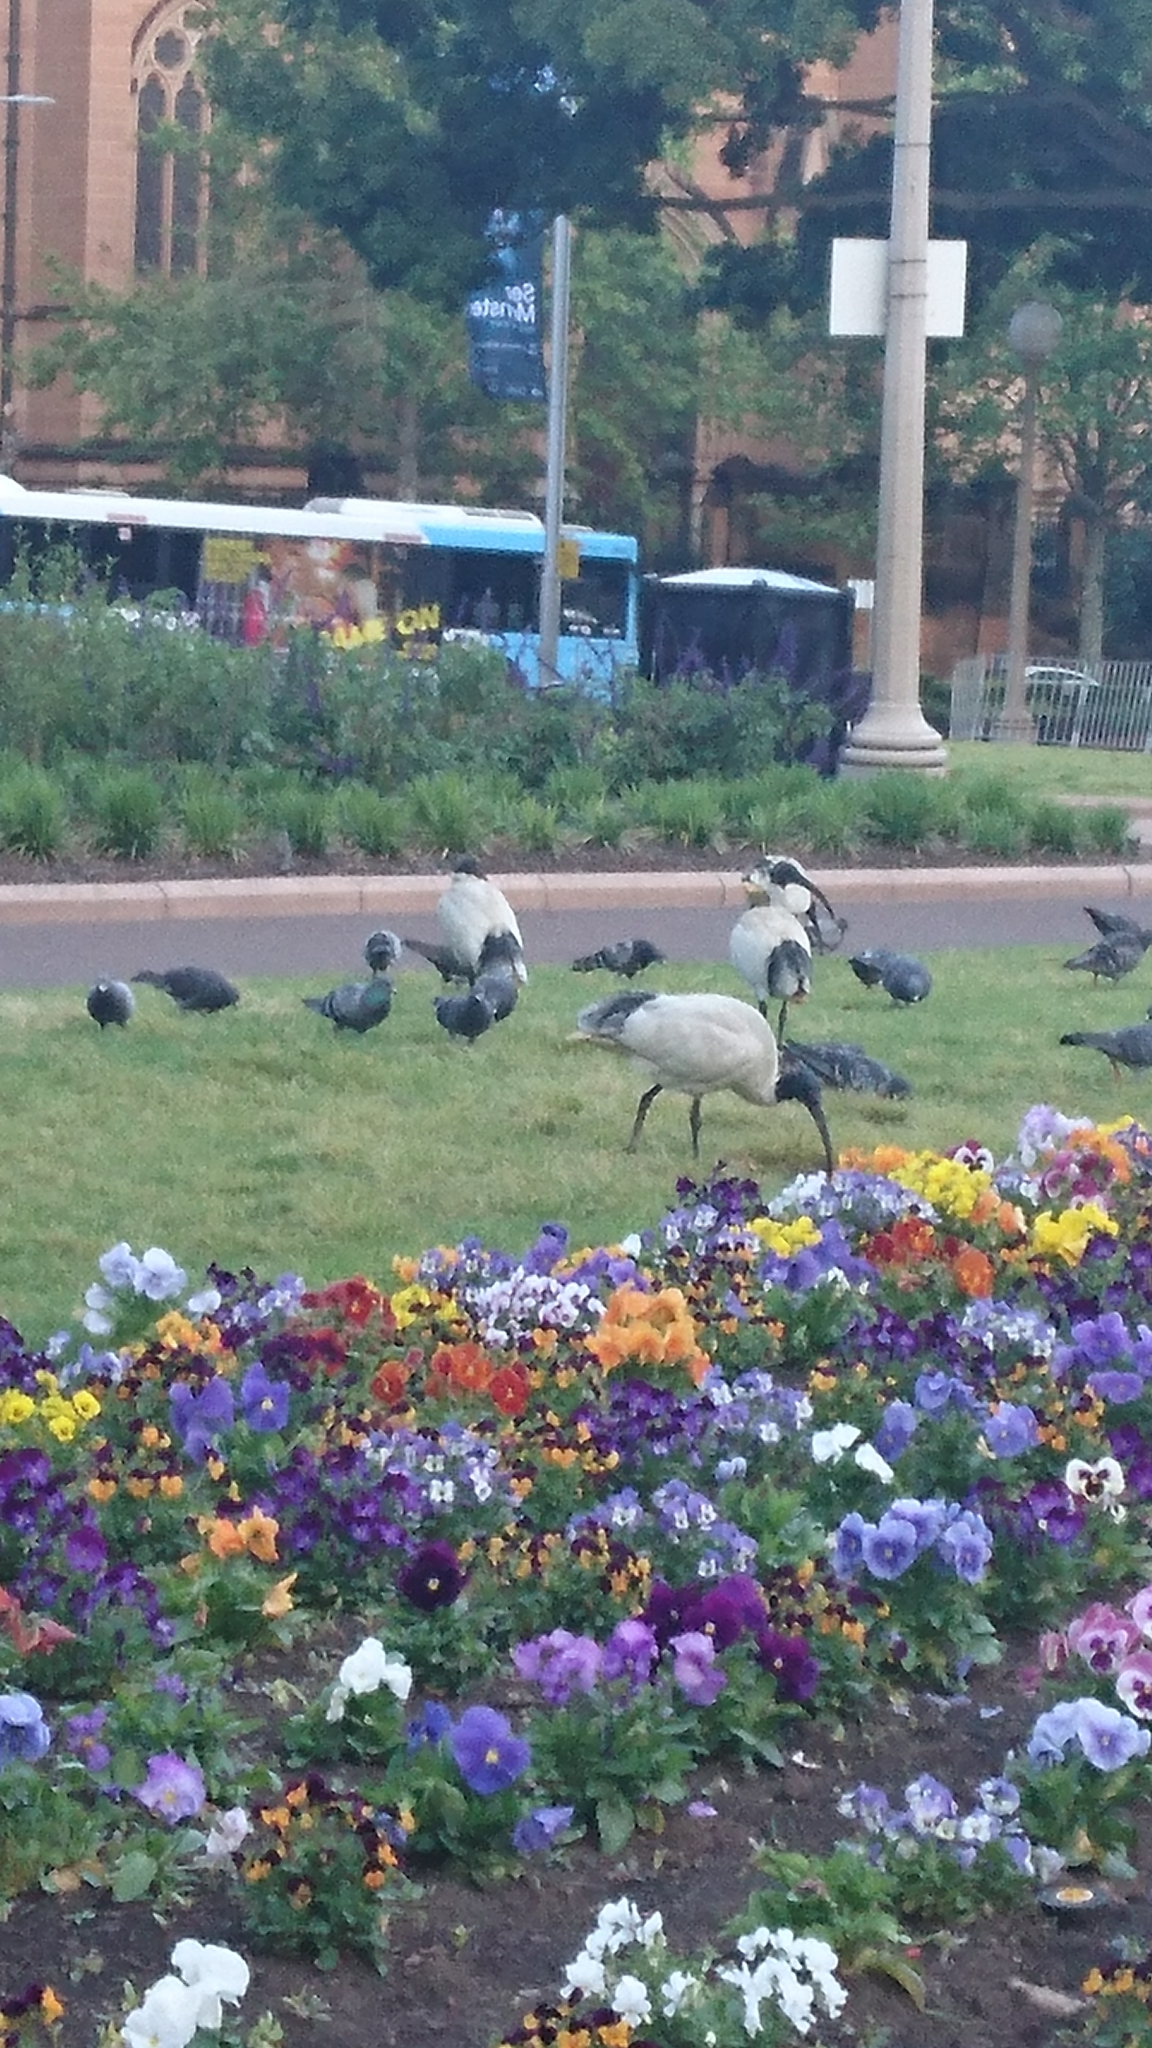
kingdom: Animalia
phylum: Chordata
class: Aves
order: Pelecaniformes
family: Threskiornithidae
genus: Threskiornis
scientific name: Threskiornis molucca
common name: Australian white ibis
